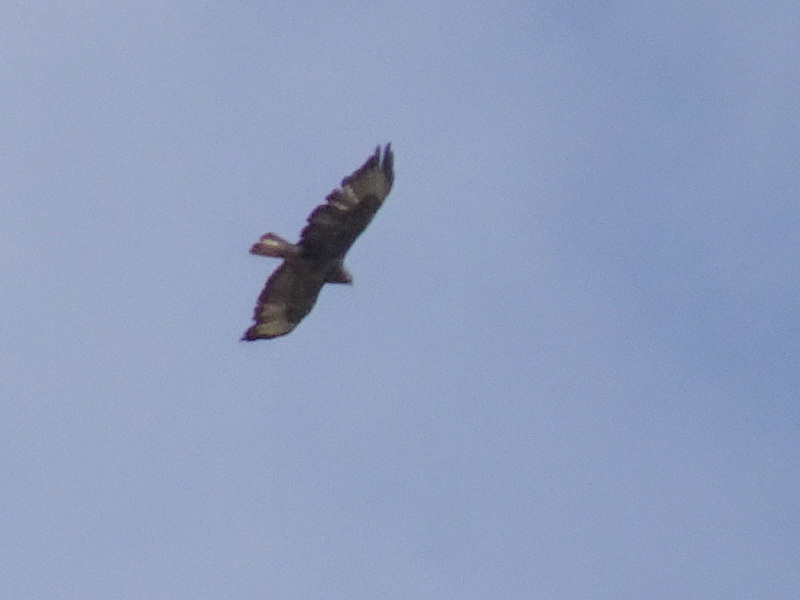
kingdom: Animalia
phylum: Chordata
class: Aves
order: Accipitriformes
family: Accipitridae
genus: Buteo
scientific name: Buteo buteo
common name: Common buzzard
